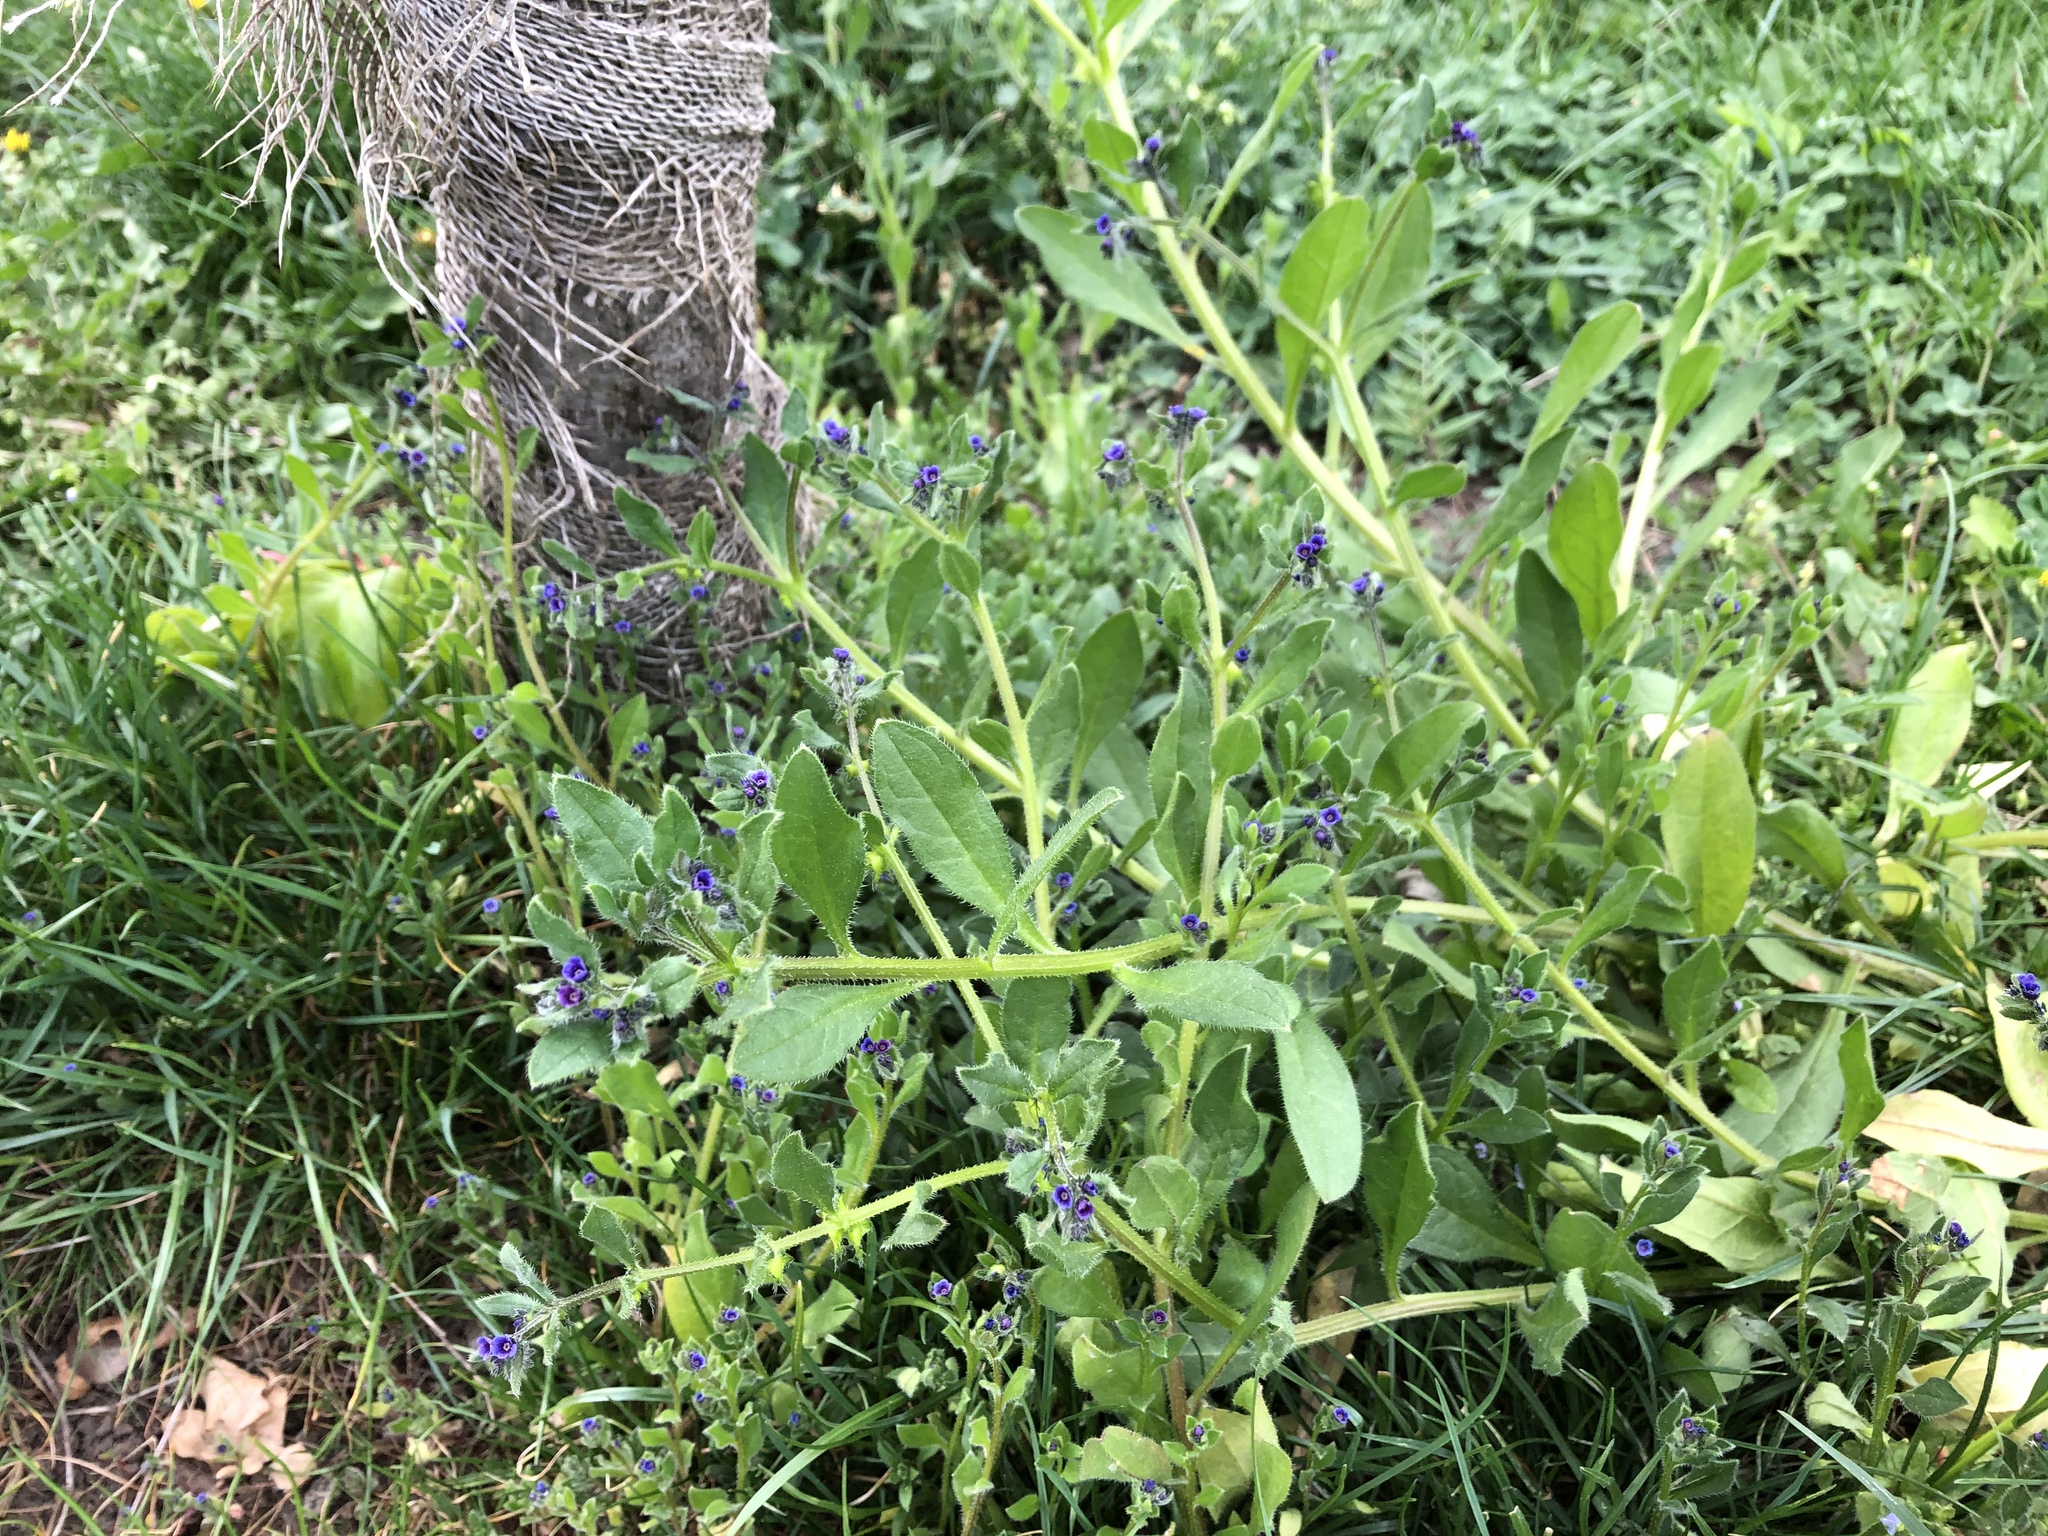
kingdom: Plantae
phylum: Tracheophyta
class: Magnoliopsida
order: Boraginales
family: Boraginaceae
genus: Asperugo
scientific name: Asperugo procumbens
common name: Madwort
